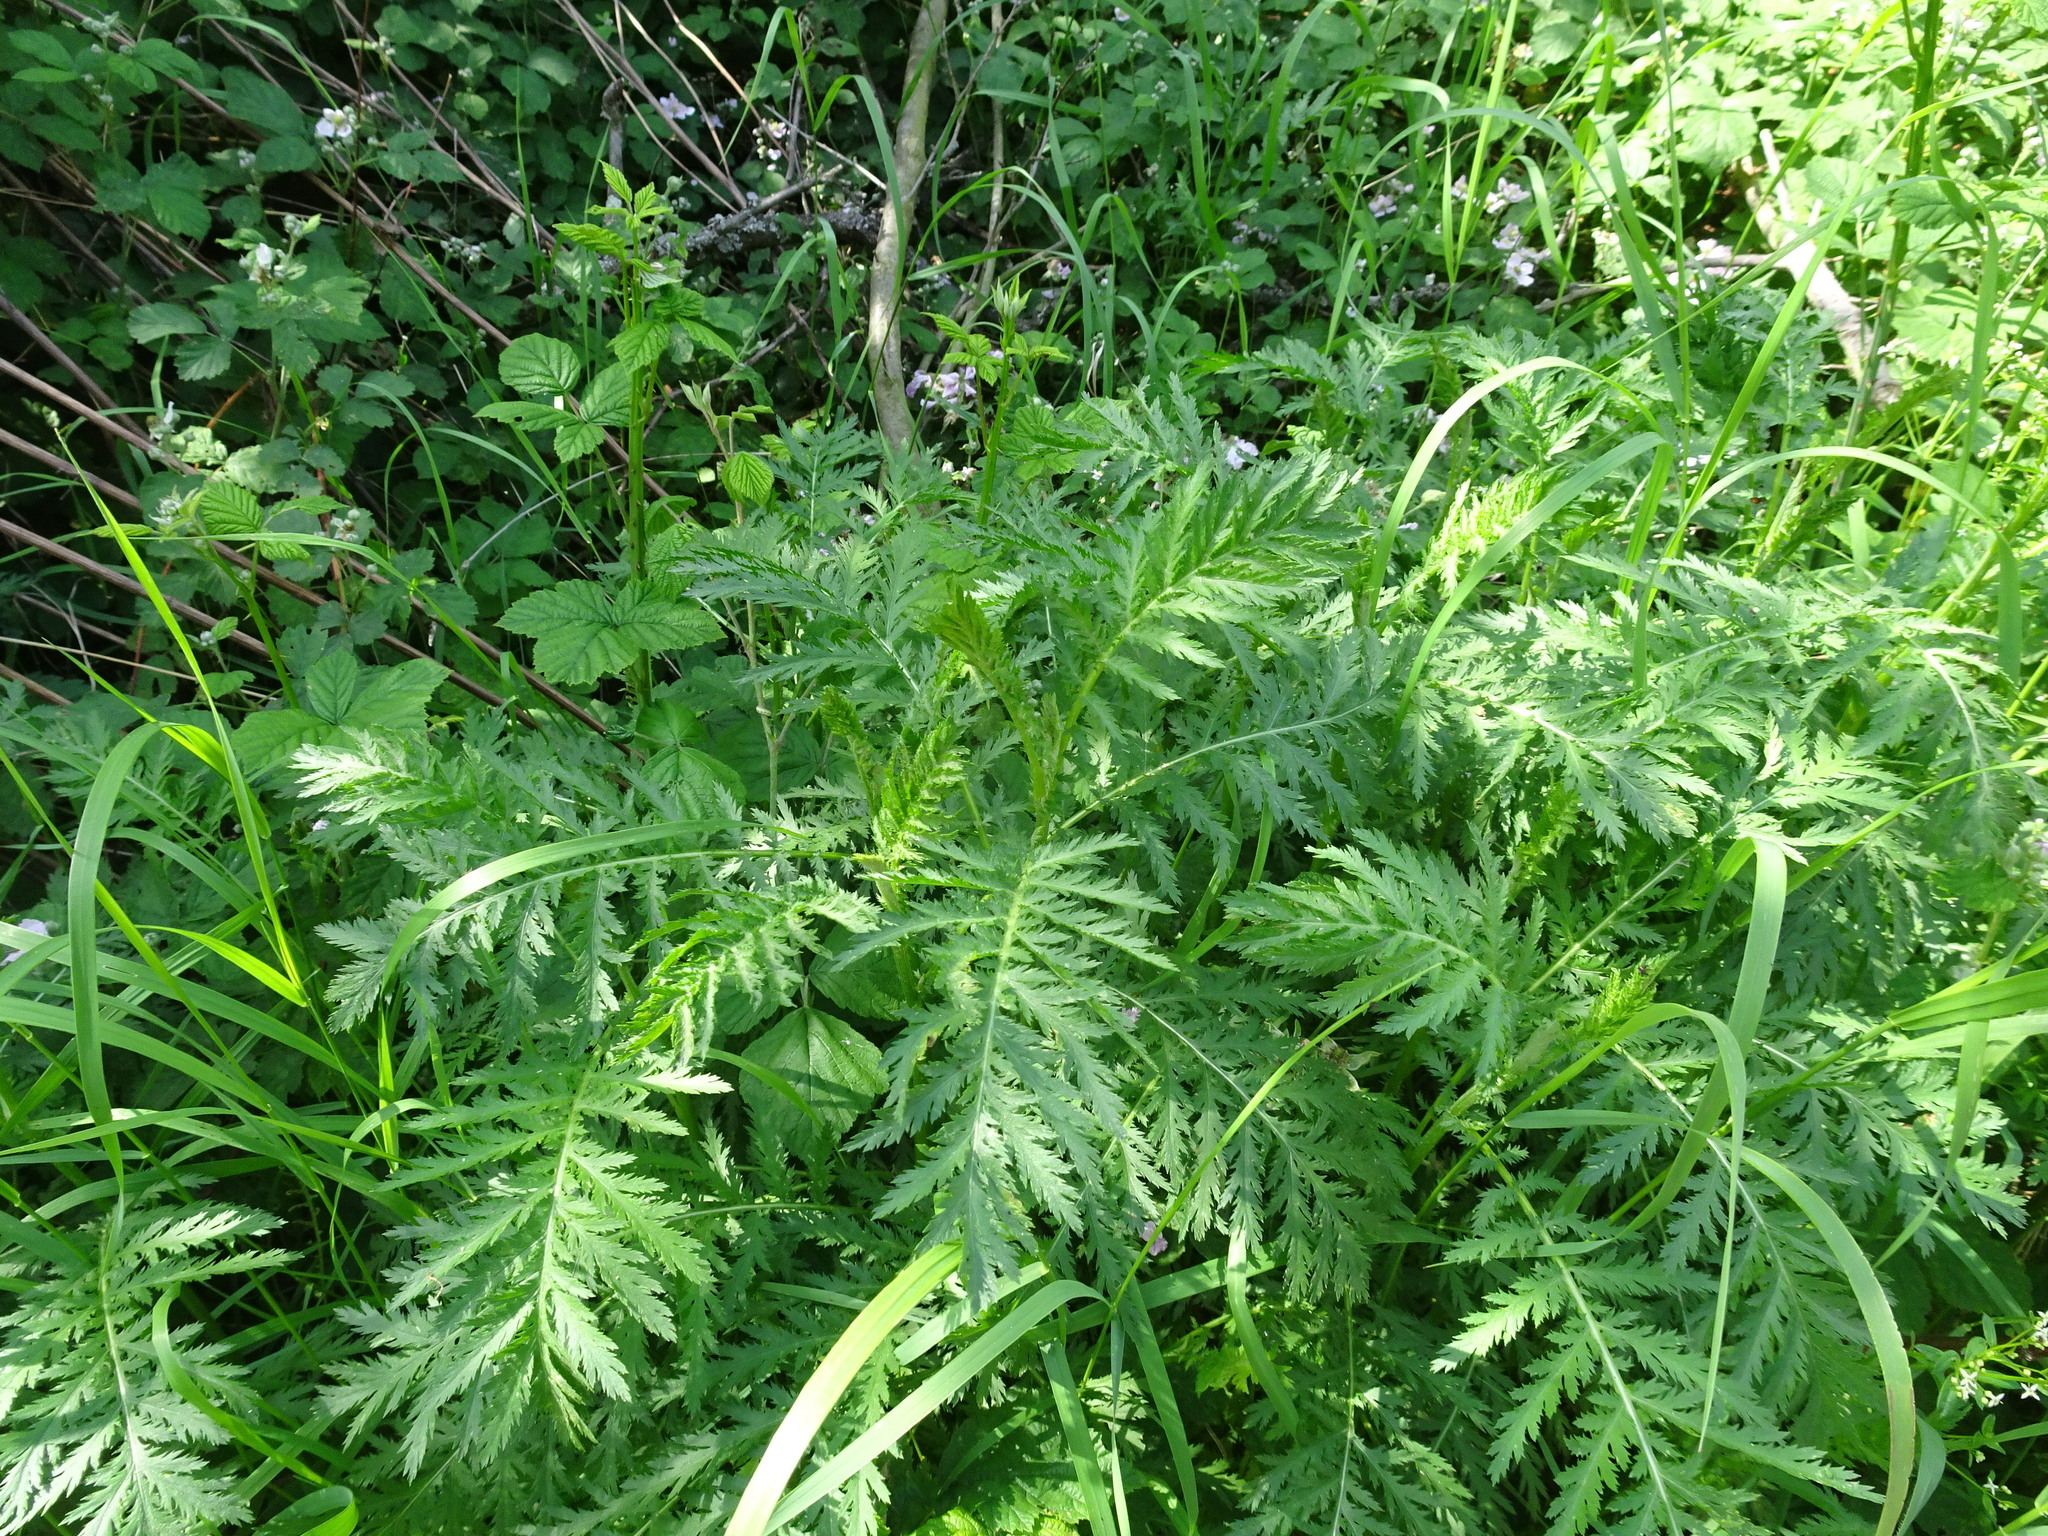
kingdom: Plantae
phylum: Tracheophyta
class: Magnoliopsida
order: Asterales
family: Asteraceae
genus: Tanacetum
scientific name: Tanacetum vulgare
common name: Common tansy
